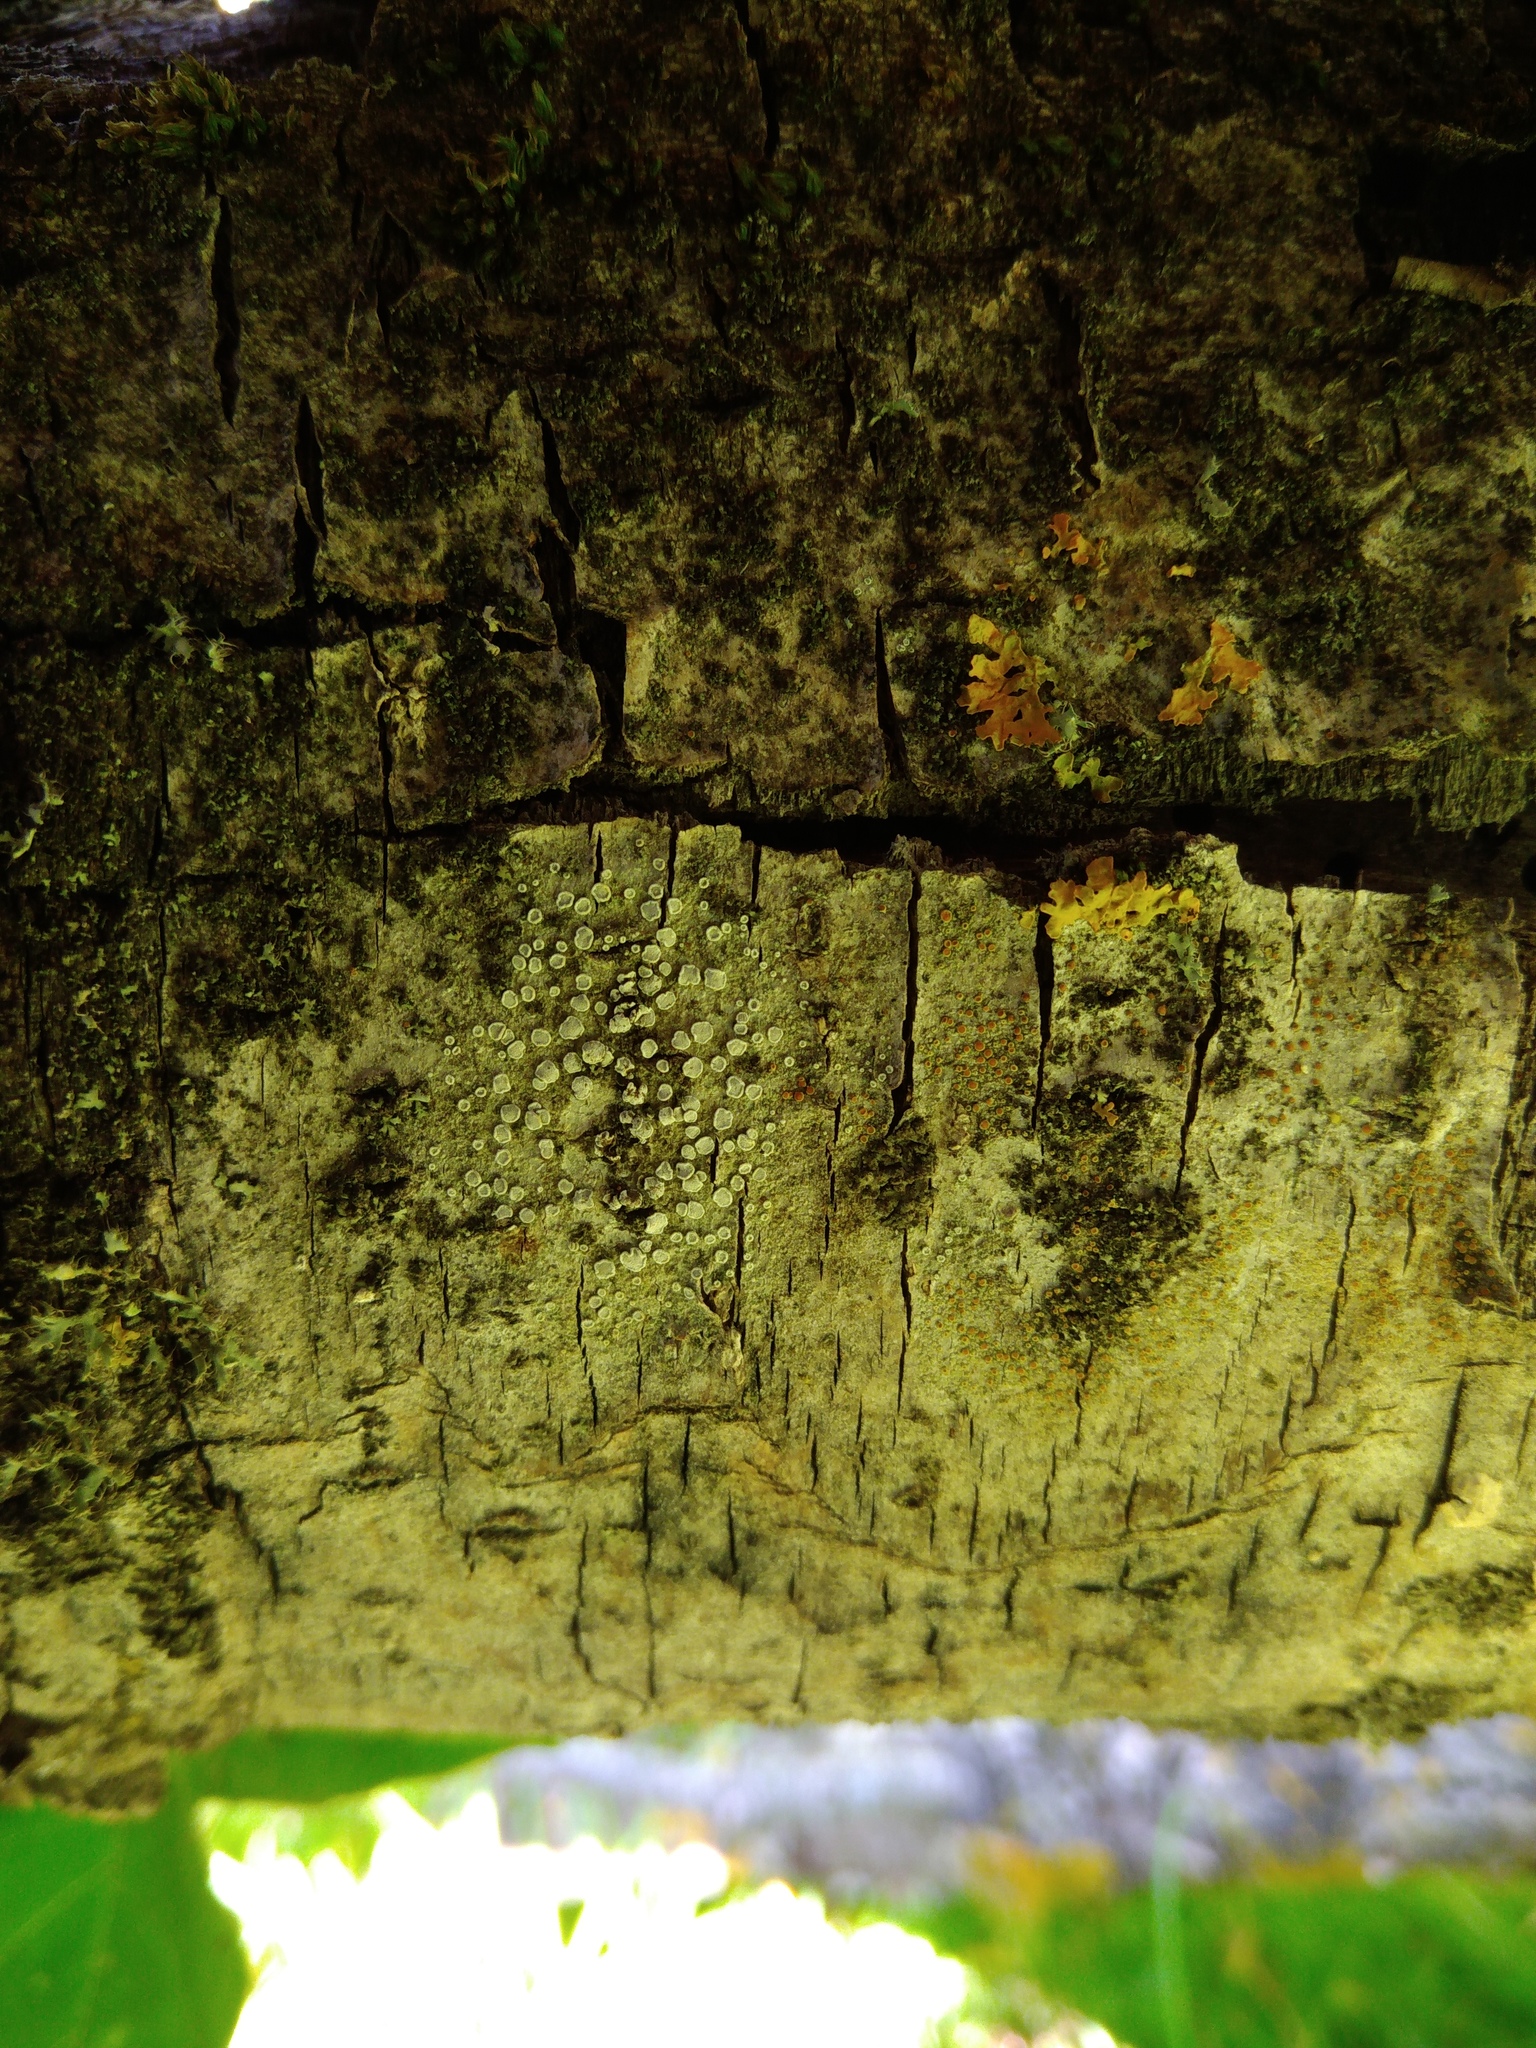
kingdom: Fungi
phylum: Ascomycota
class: Lecanoromycetes
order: Lecanorales
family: Lecanoraceae
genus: Myriolecis
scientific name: Myriolecis populicola
